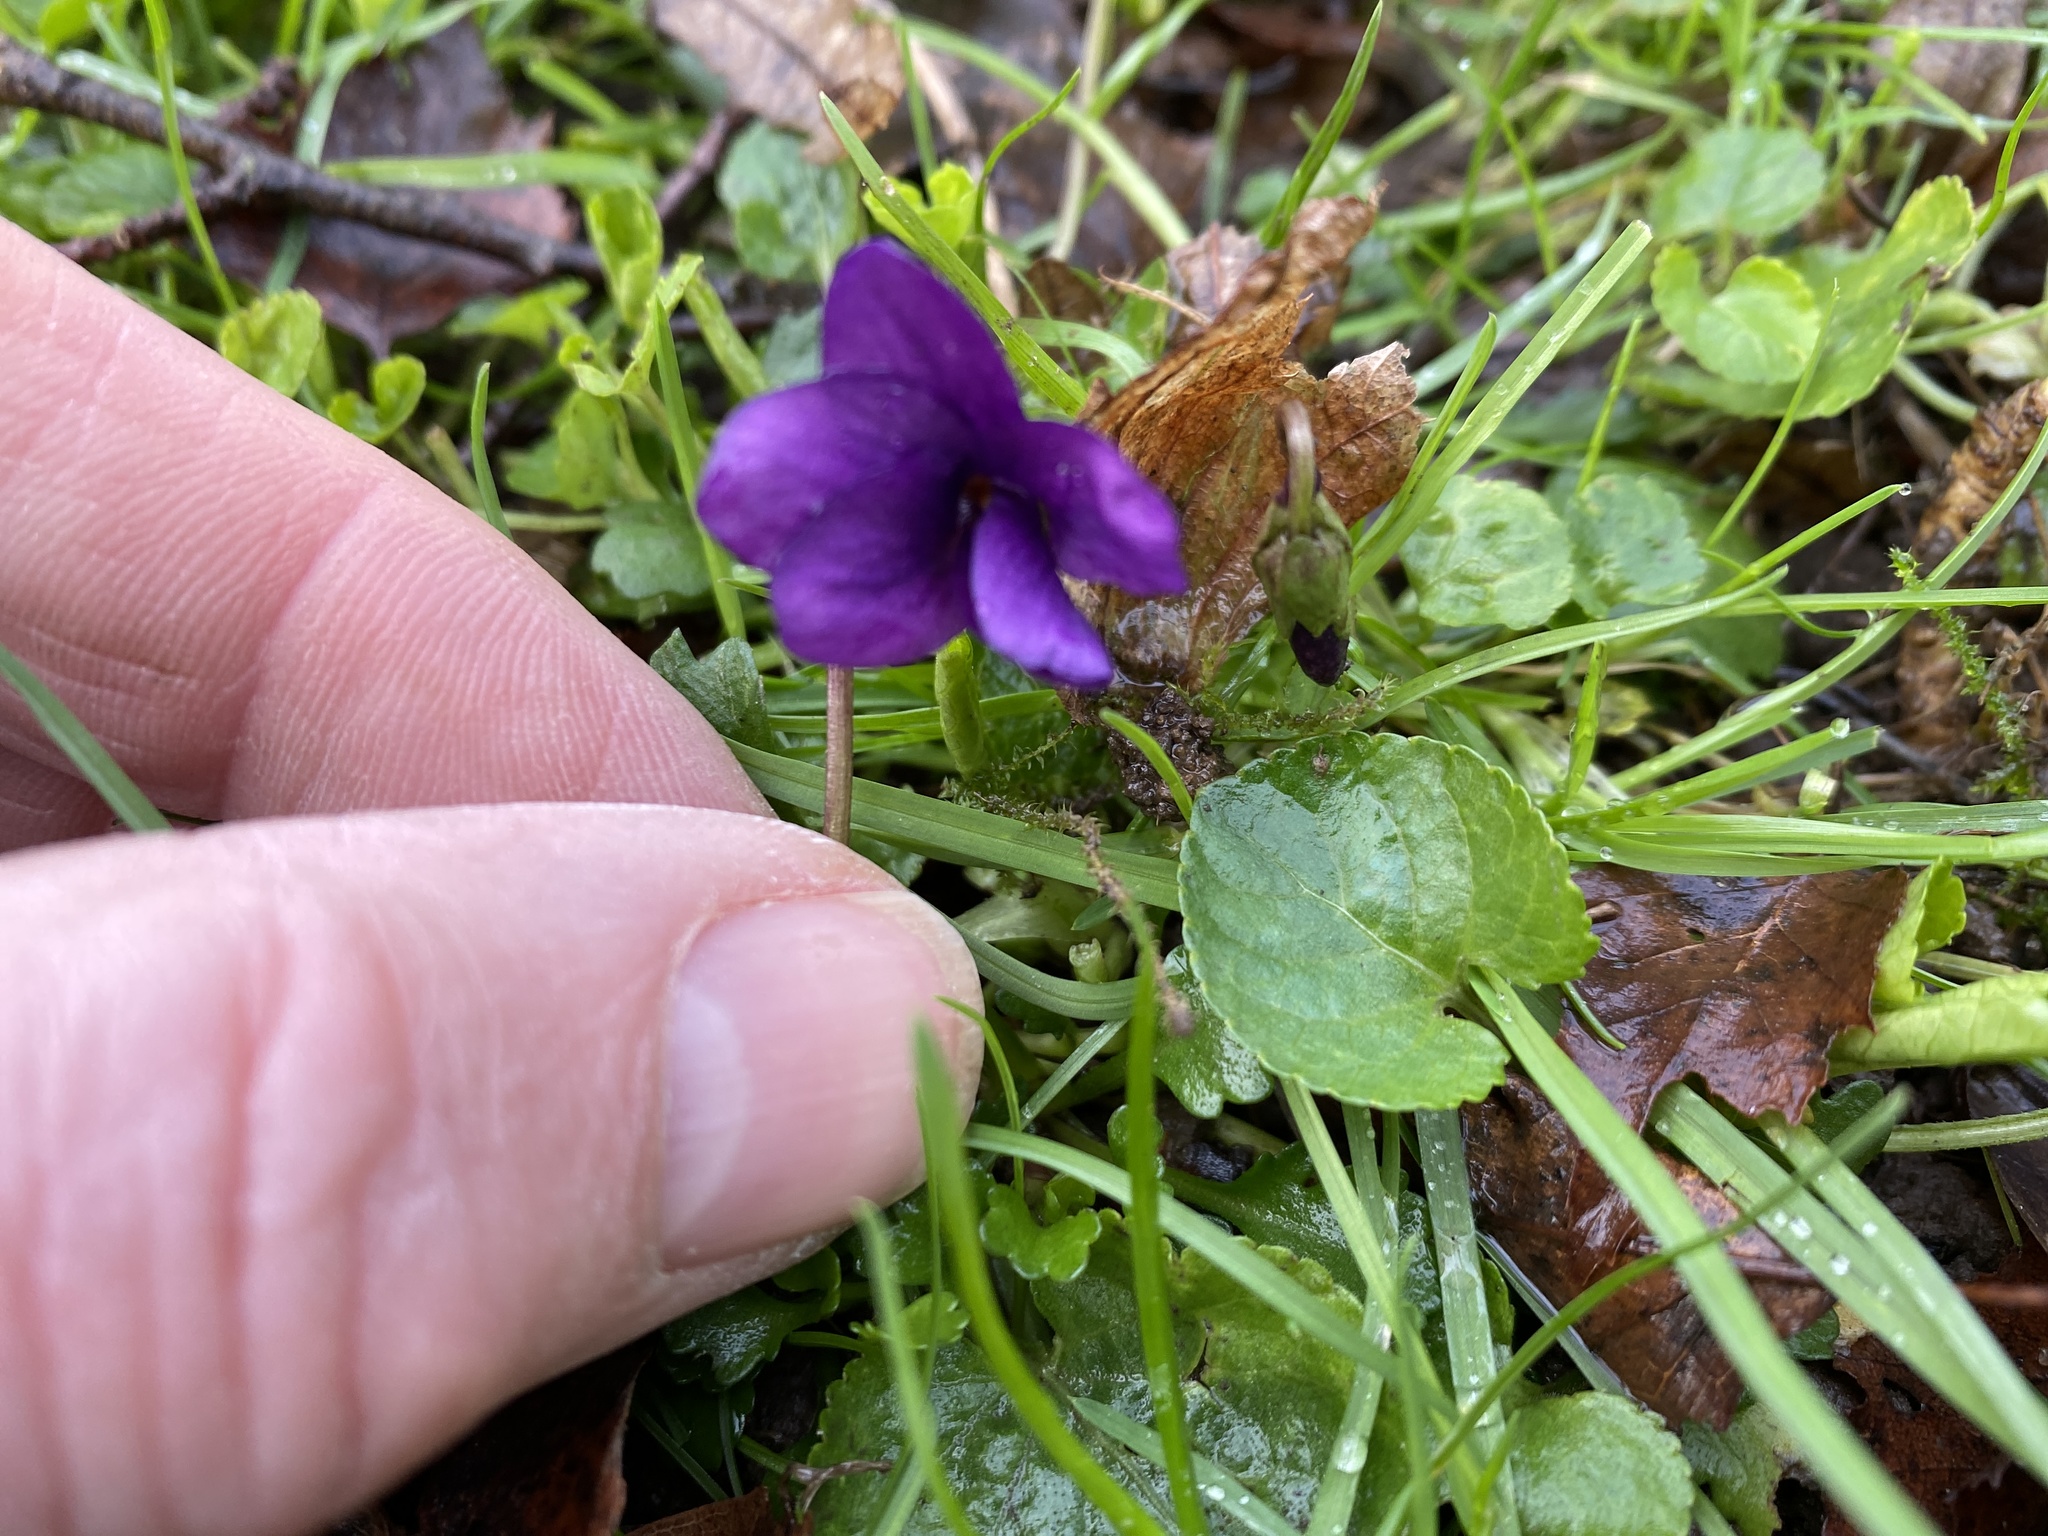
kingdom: Plantae
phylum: Tracheophyta
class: Magnoliopsida
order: Malpighiales
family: Violaceae
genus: Viola
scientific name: Viola odorata
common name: Sweet violet
